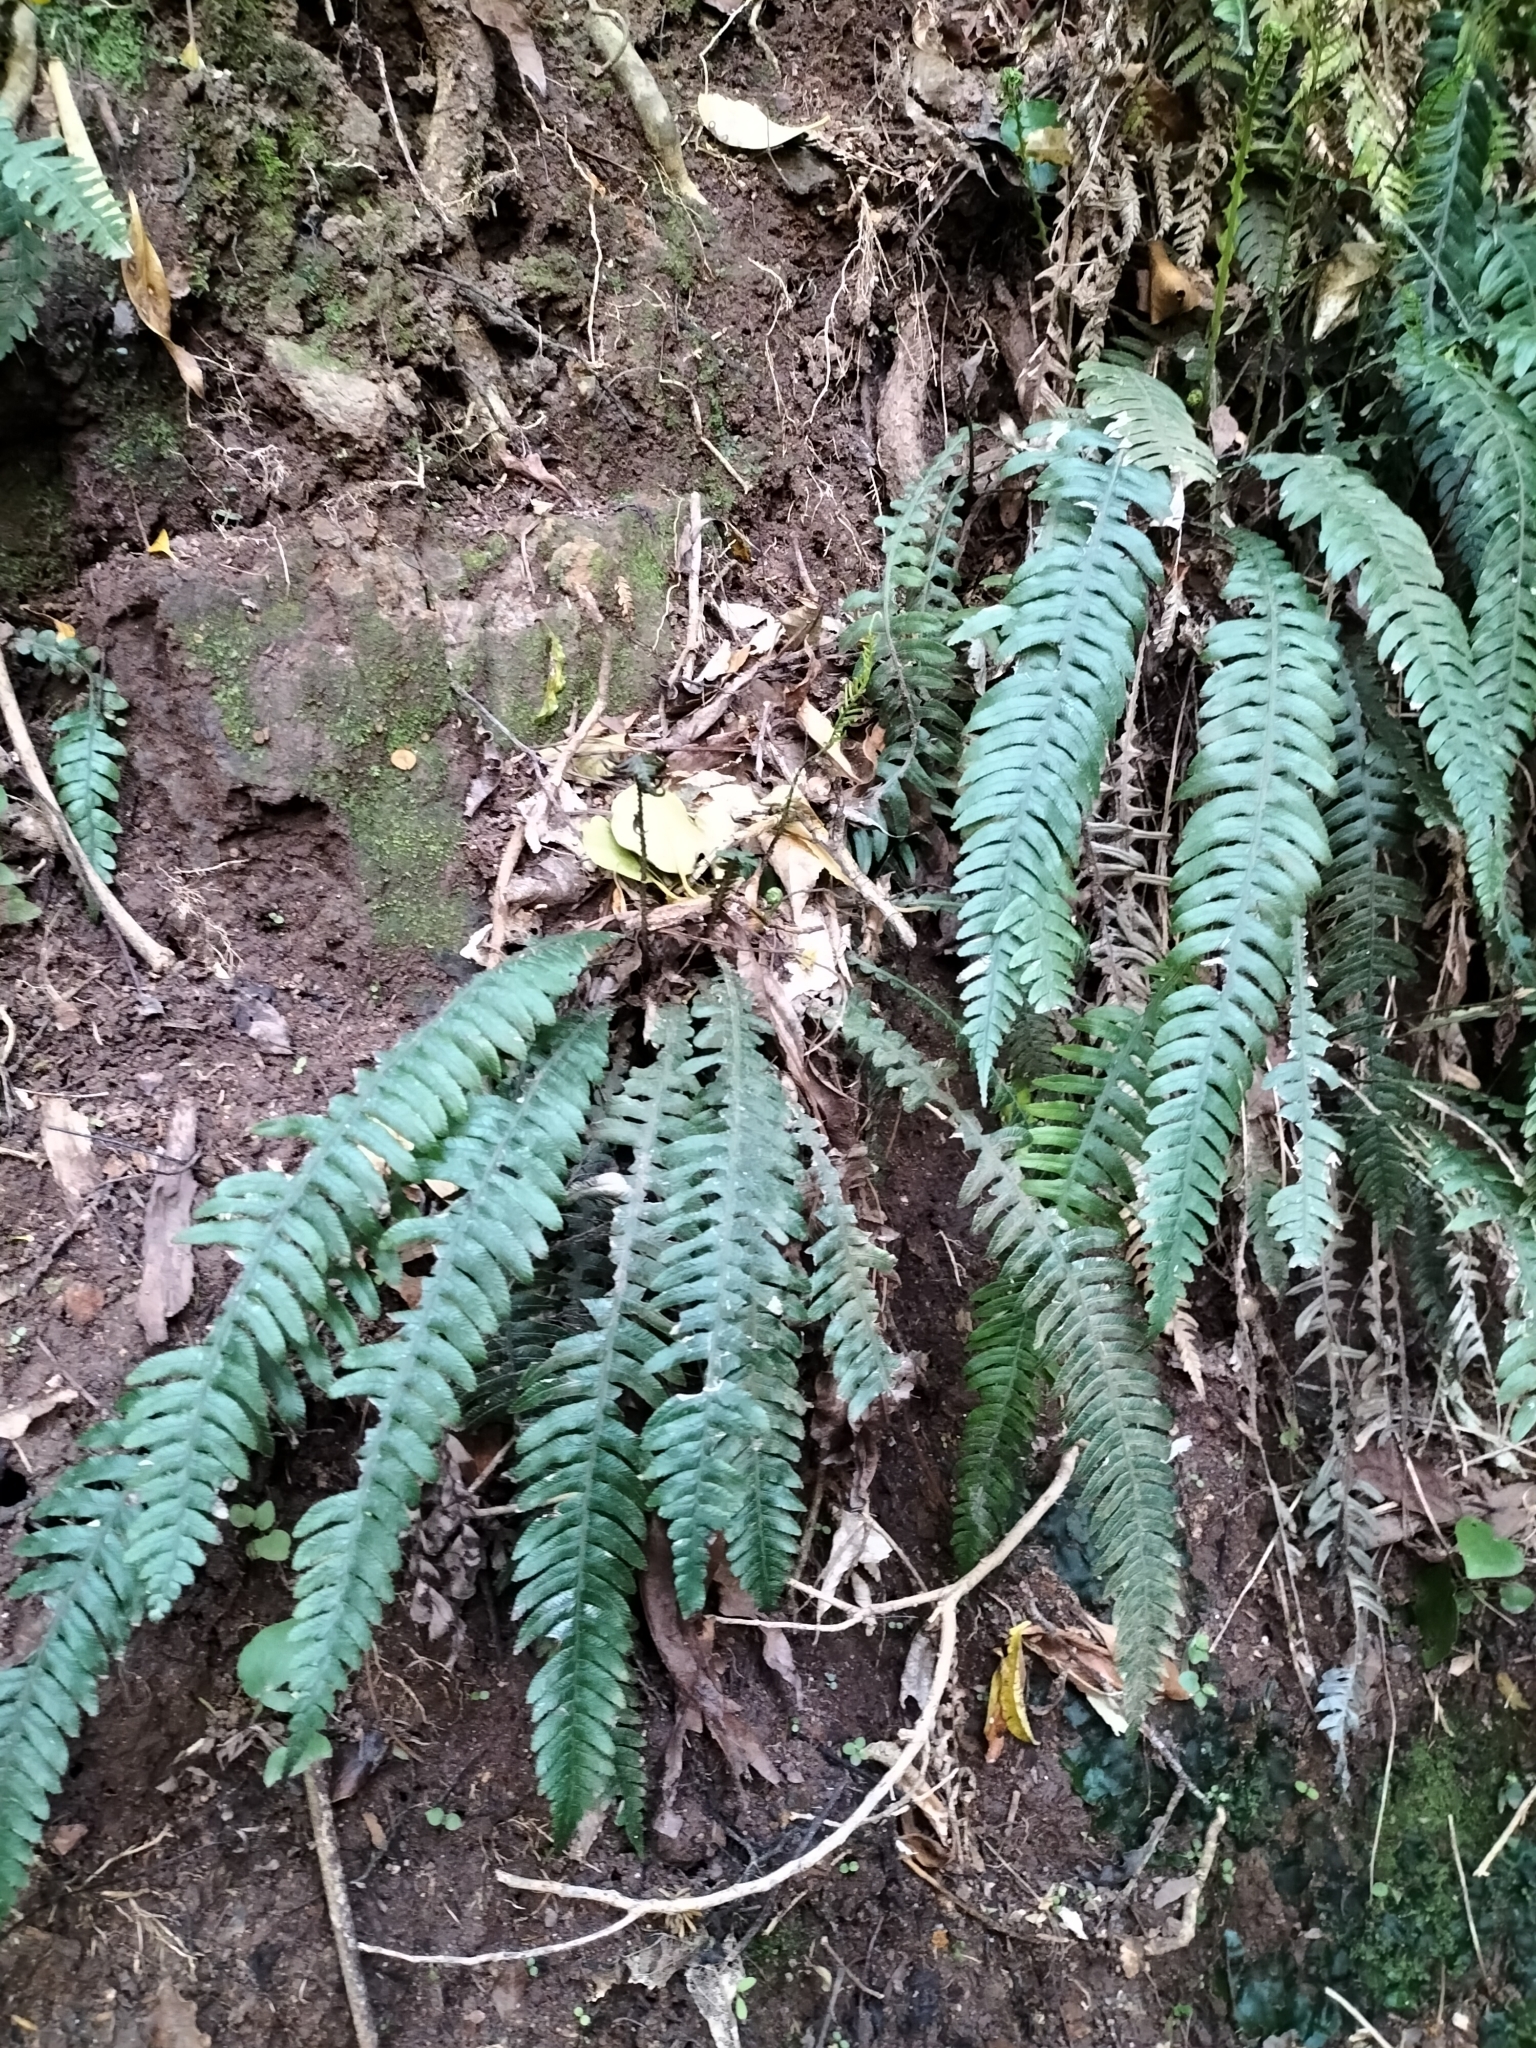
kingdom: Plantae
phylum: Tracheophyta
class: Polypodiopsida
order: Polypodiales
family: Blechnaceae
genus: Austroblechnum
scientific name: Austroblechnum lanceolatum
